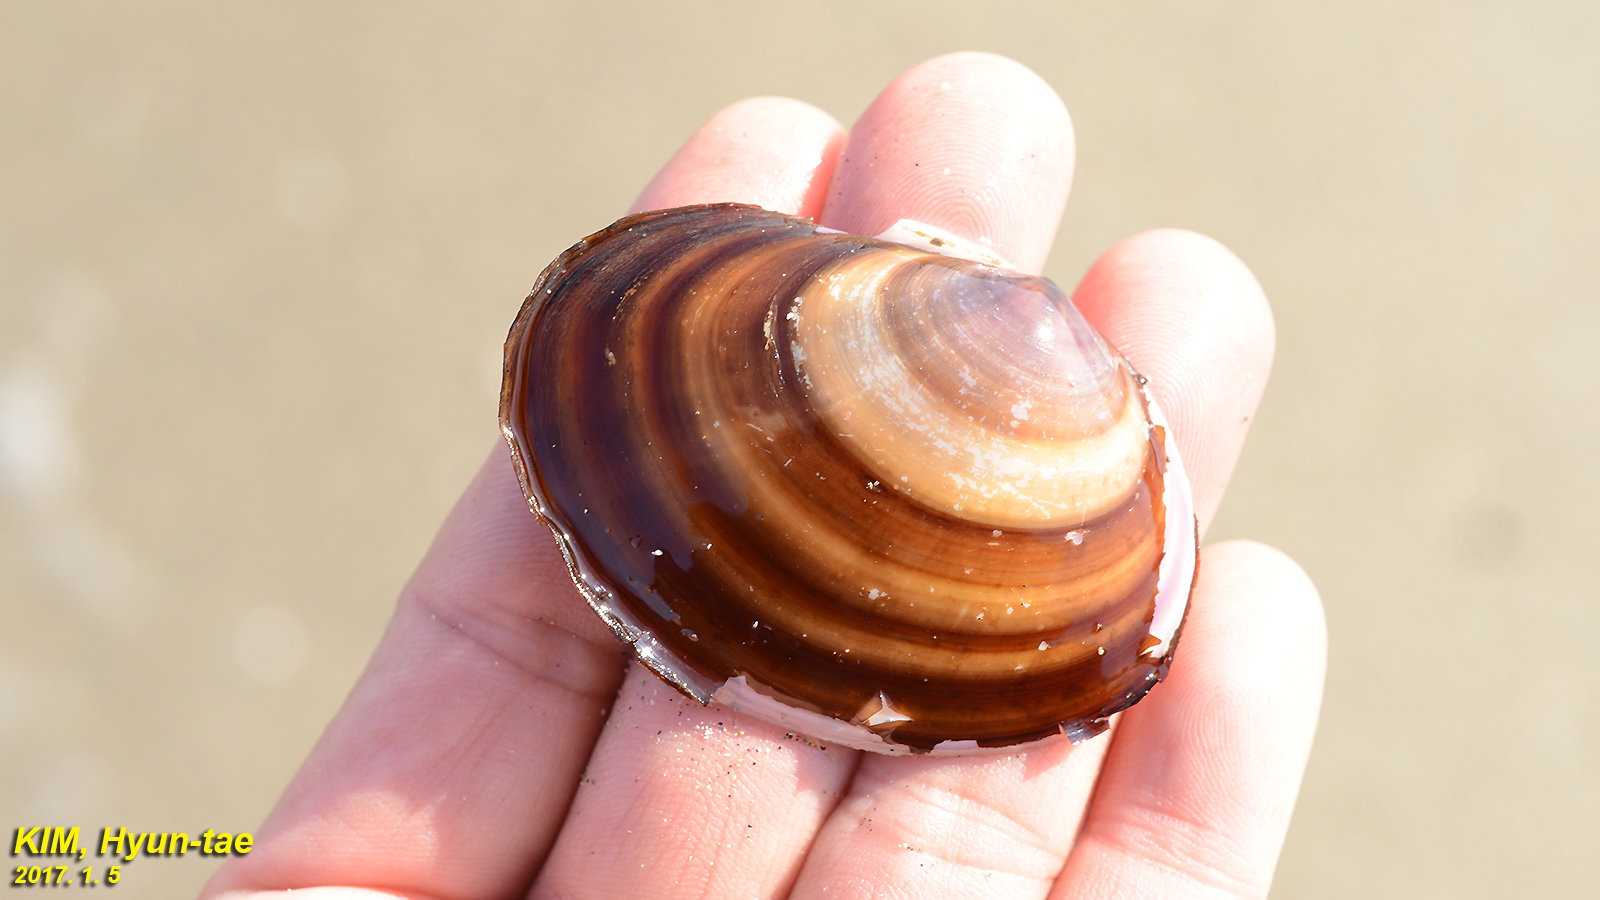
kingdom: Animalia
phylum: Mollusca
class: Bivalvia
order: Cardiida
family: Psammobiidae
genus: Nuttallia
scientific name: Nuttallia japonica
